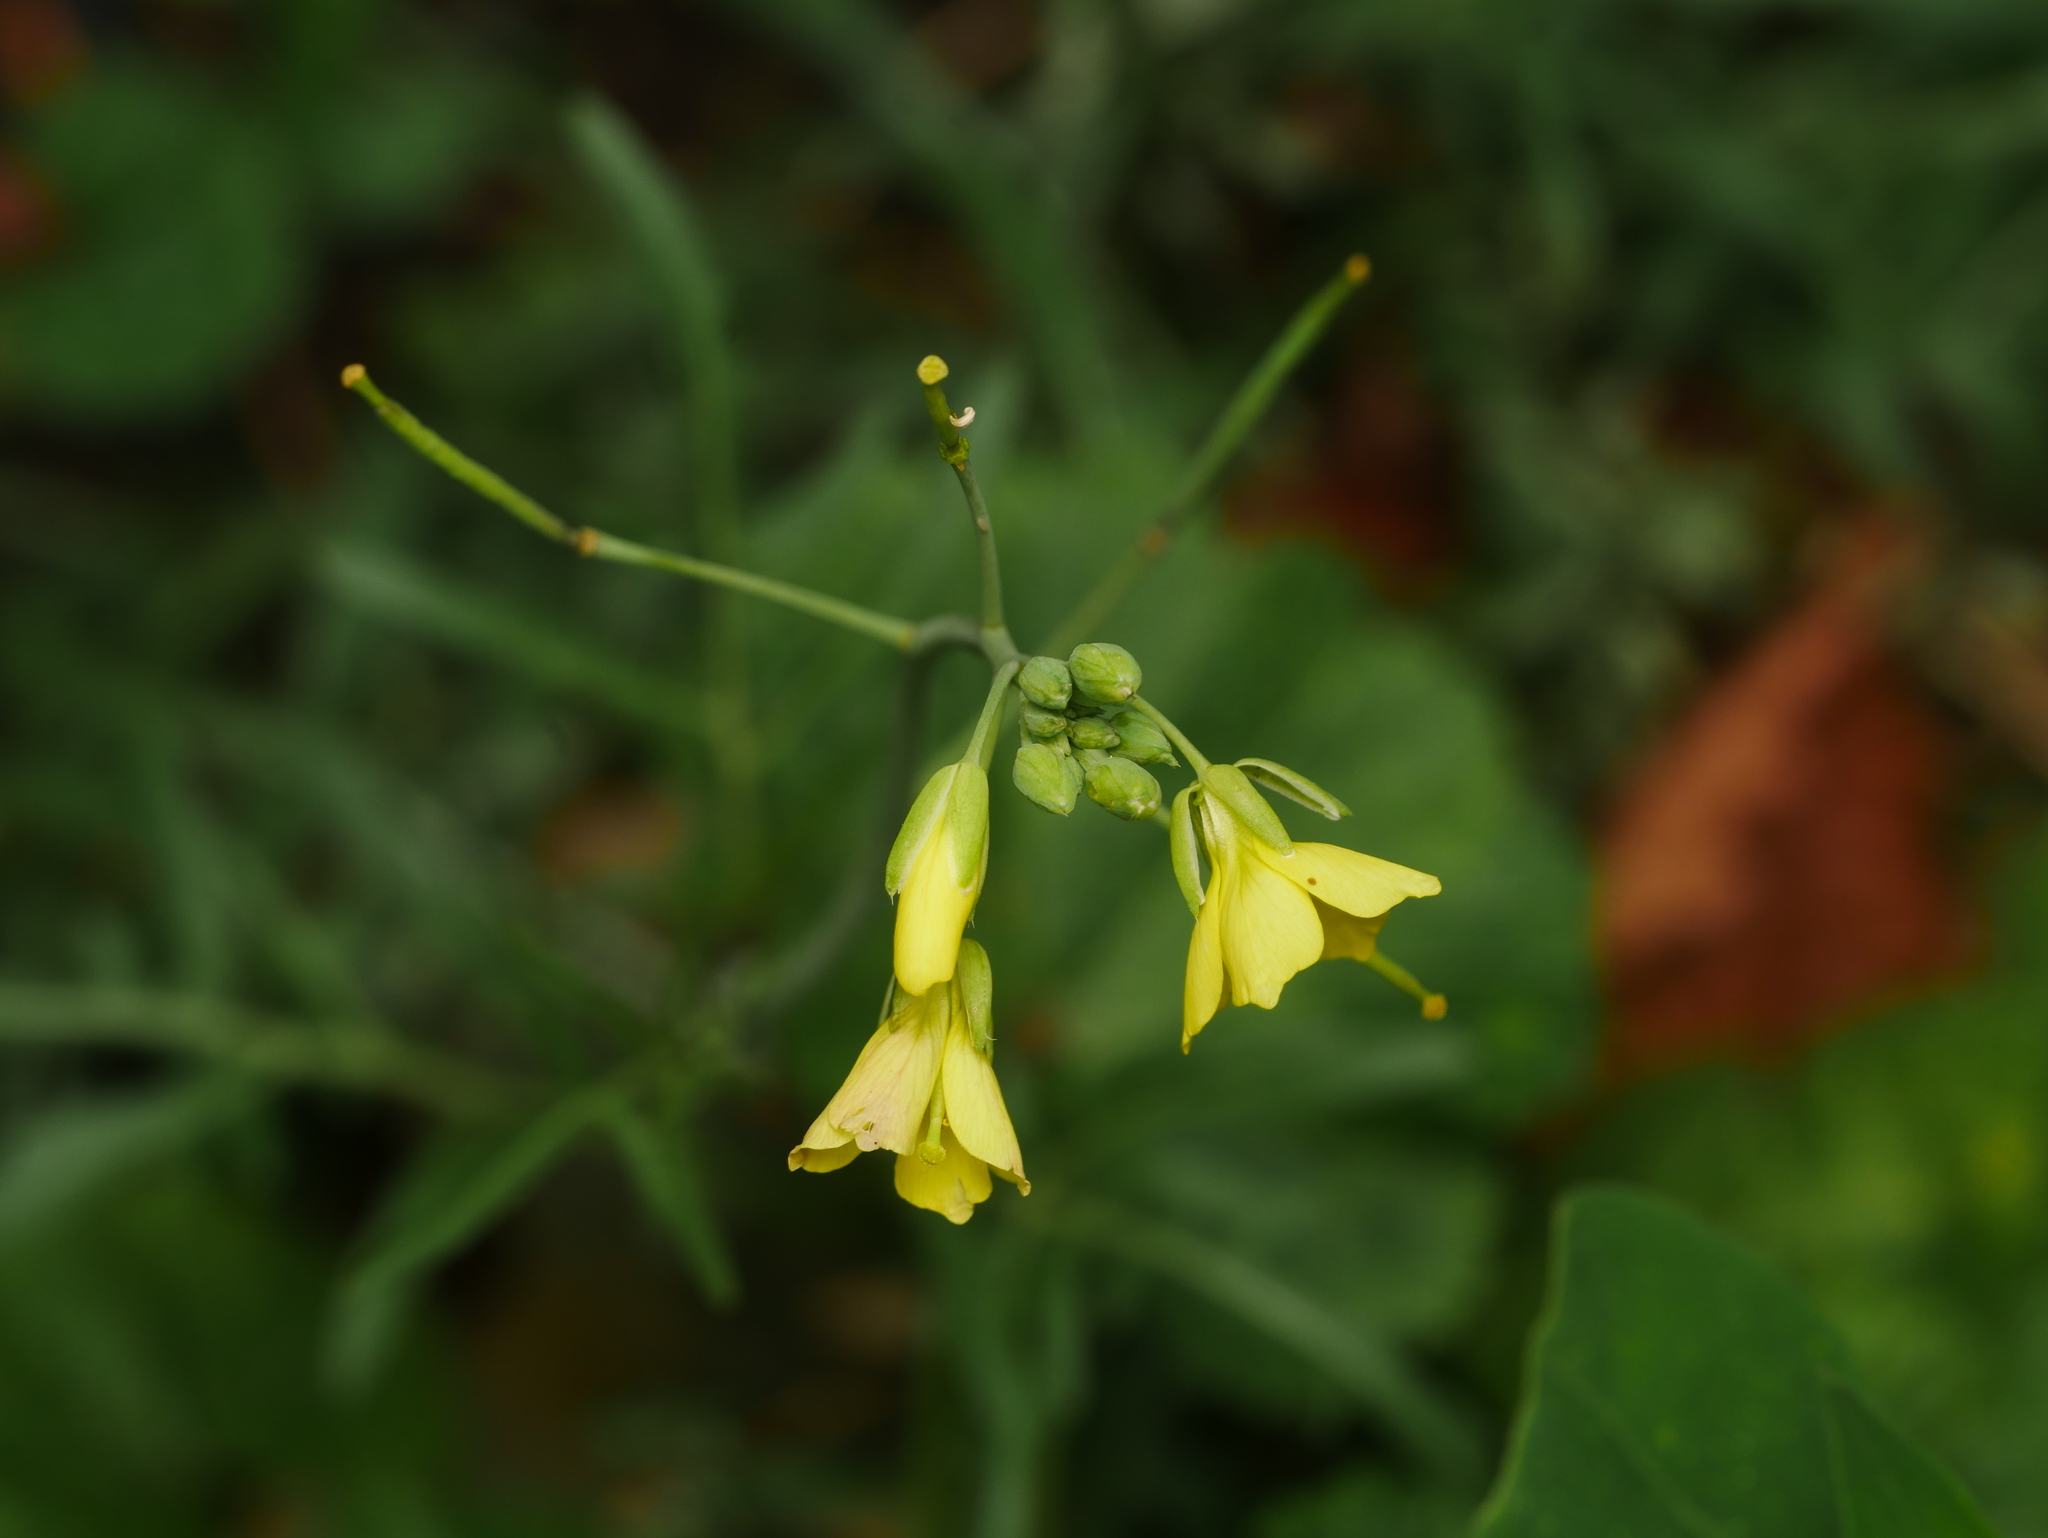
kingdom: Plantae
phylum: Tracheophyta
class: Magnoliopsida
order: Brassicales
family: Brassicaceae
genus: Diplotaxis
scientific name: Diplotaxis tenuifolia
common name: Perennial wall-rocket
